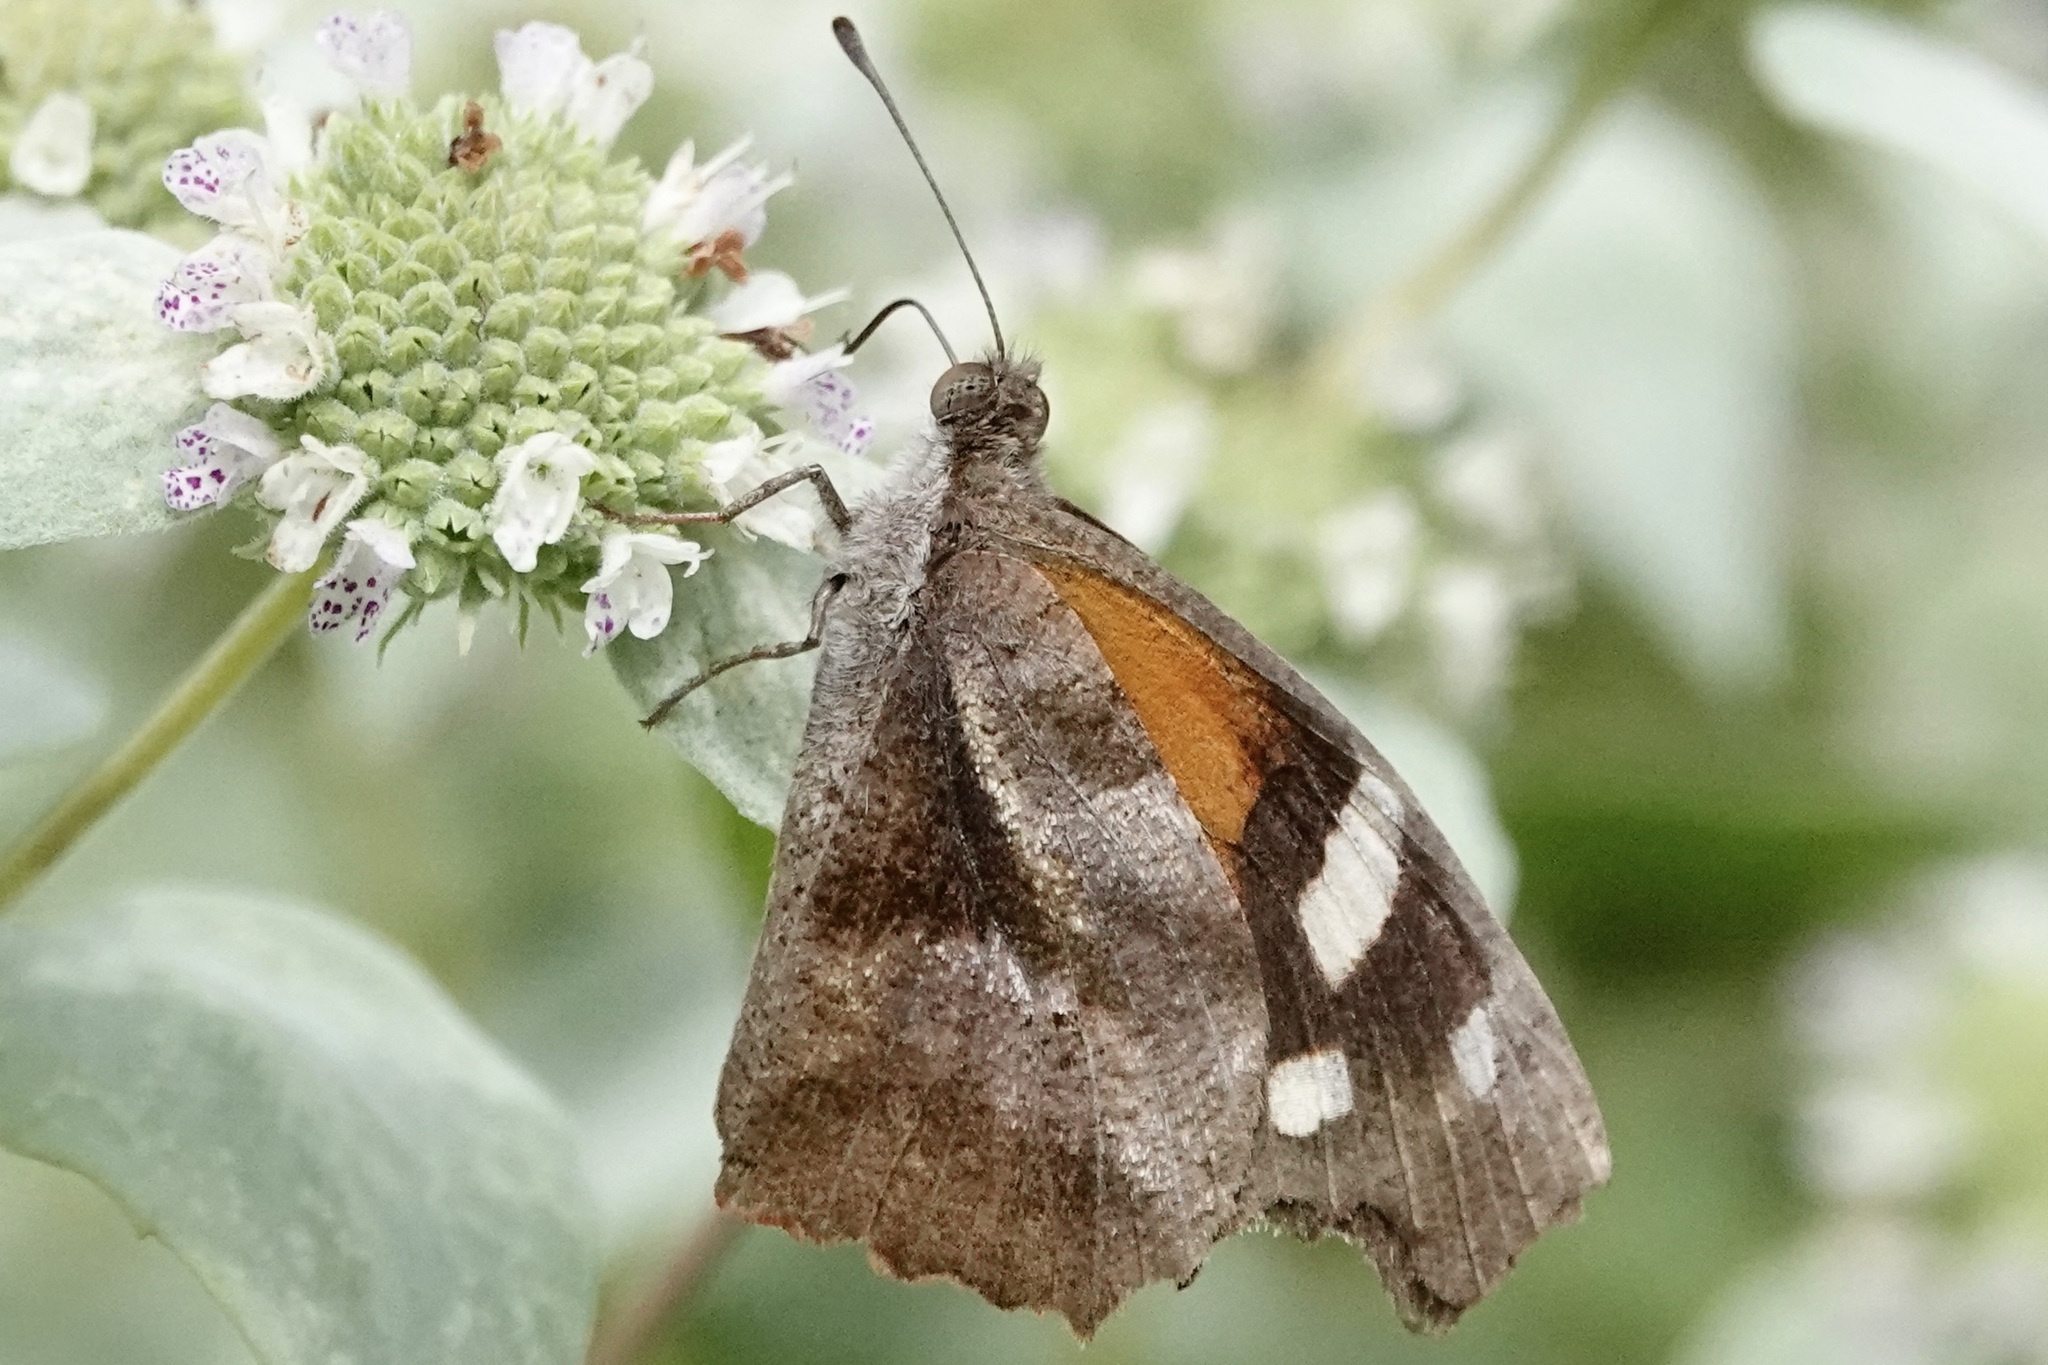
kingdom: Animalia
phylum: Arthropoda
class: Insecta
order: Lepidoptera
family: Nymphalidae
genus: Libytheana
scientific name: Libytheana carinenta
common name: American snout
